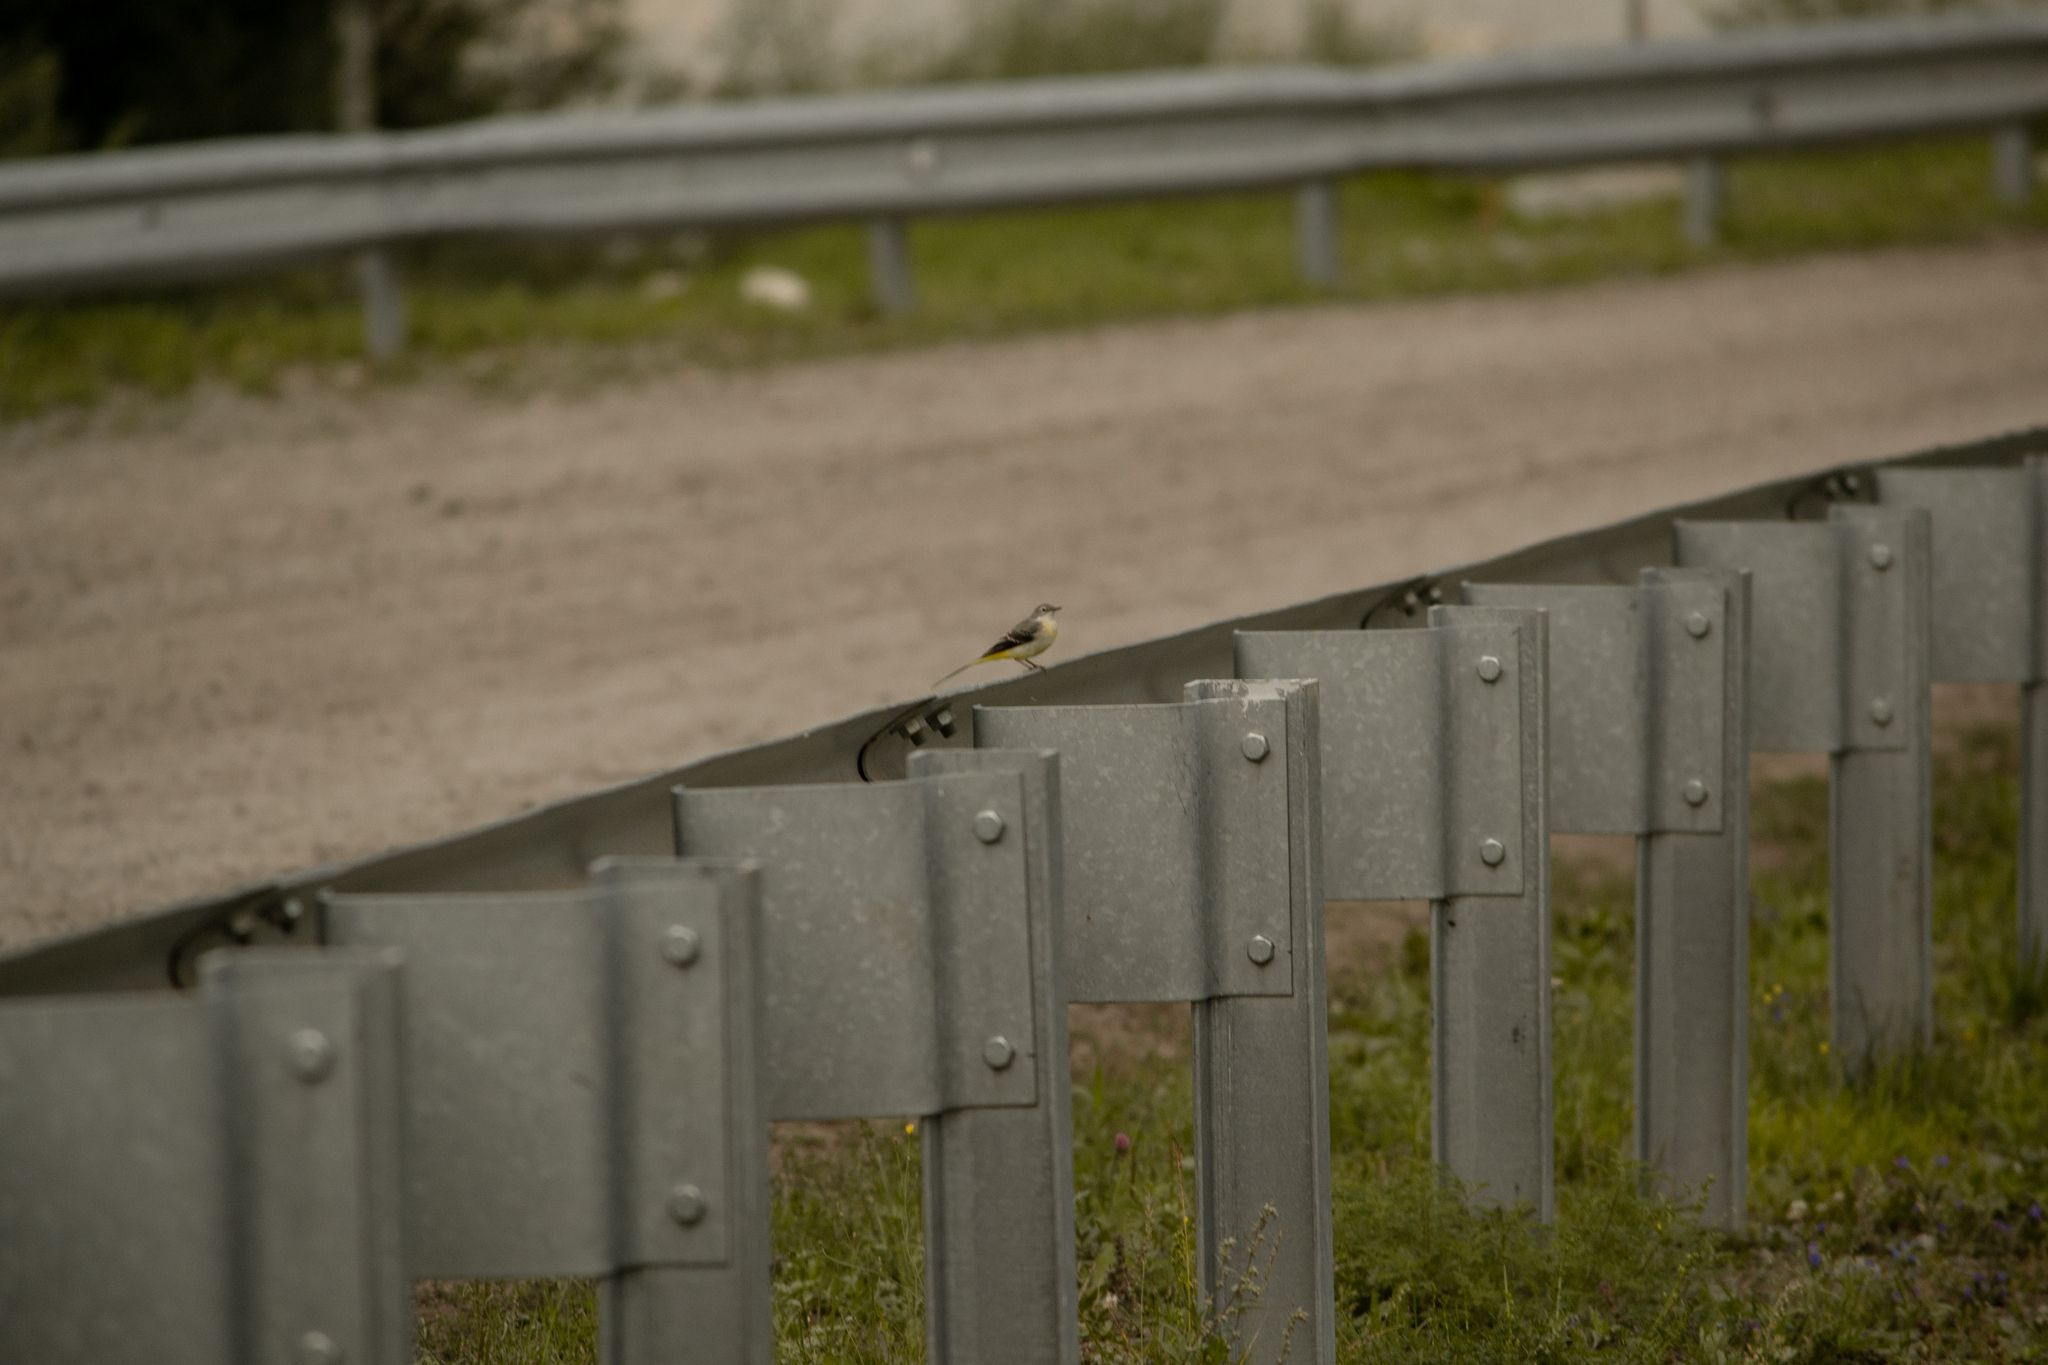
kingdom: Animalia
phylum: Chordata
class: Aves
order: Passeriformes
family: Motacillidae
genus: Motacilla
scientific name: Motacilla cinerea
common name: Grey wagtail
